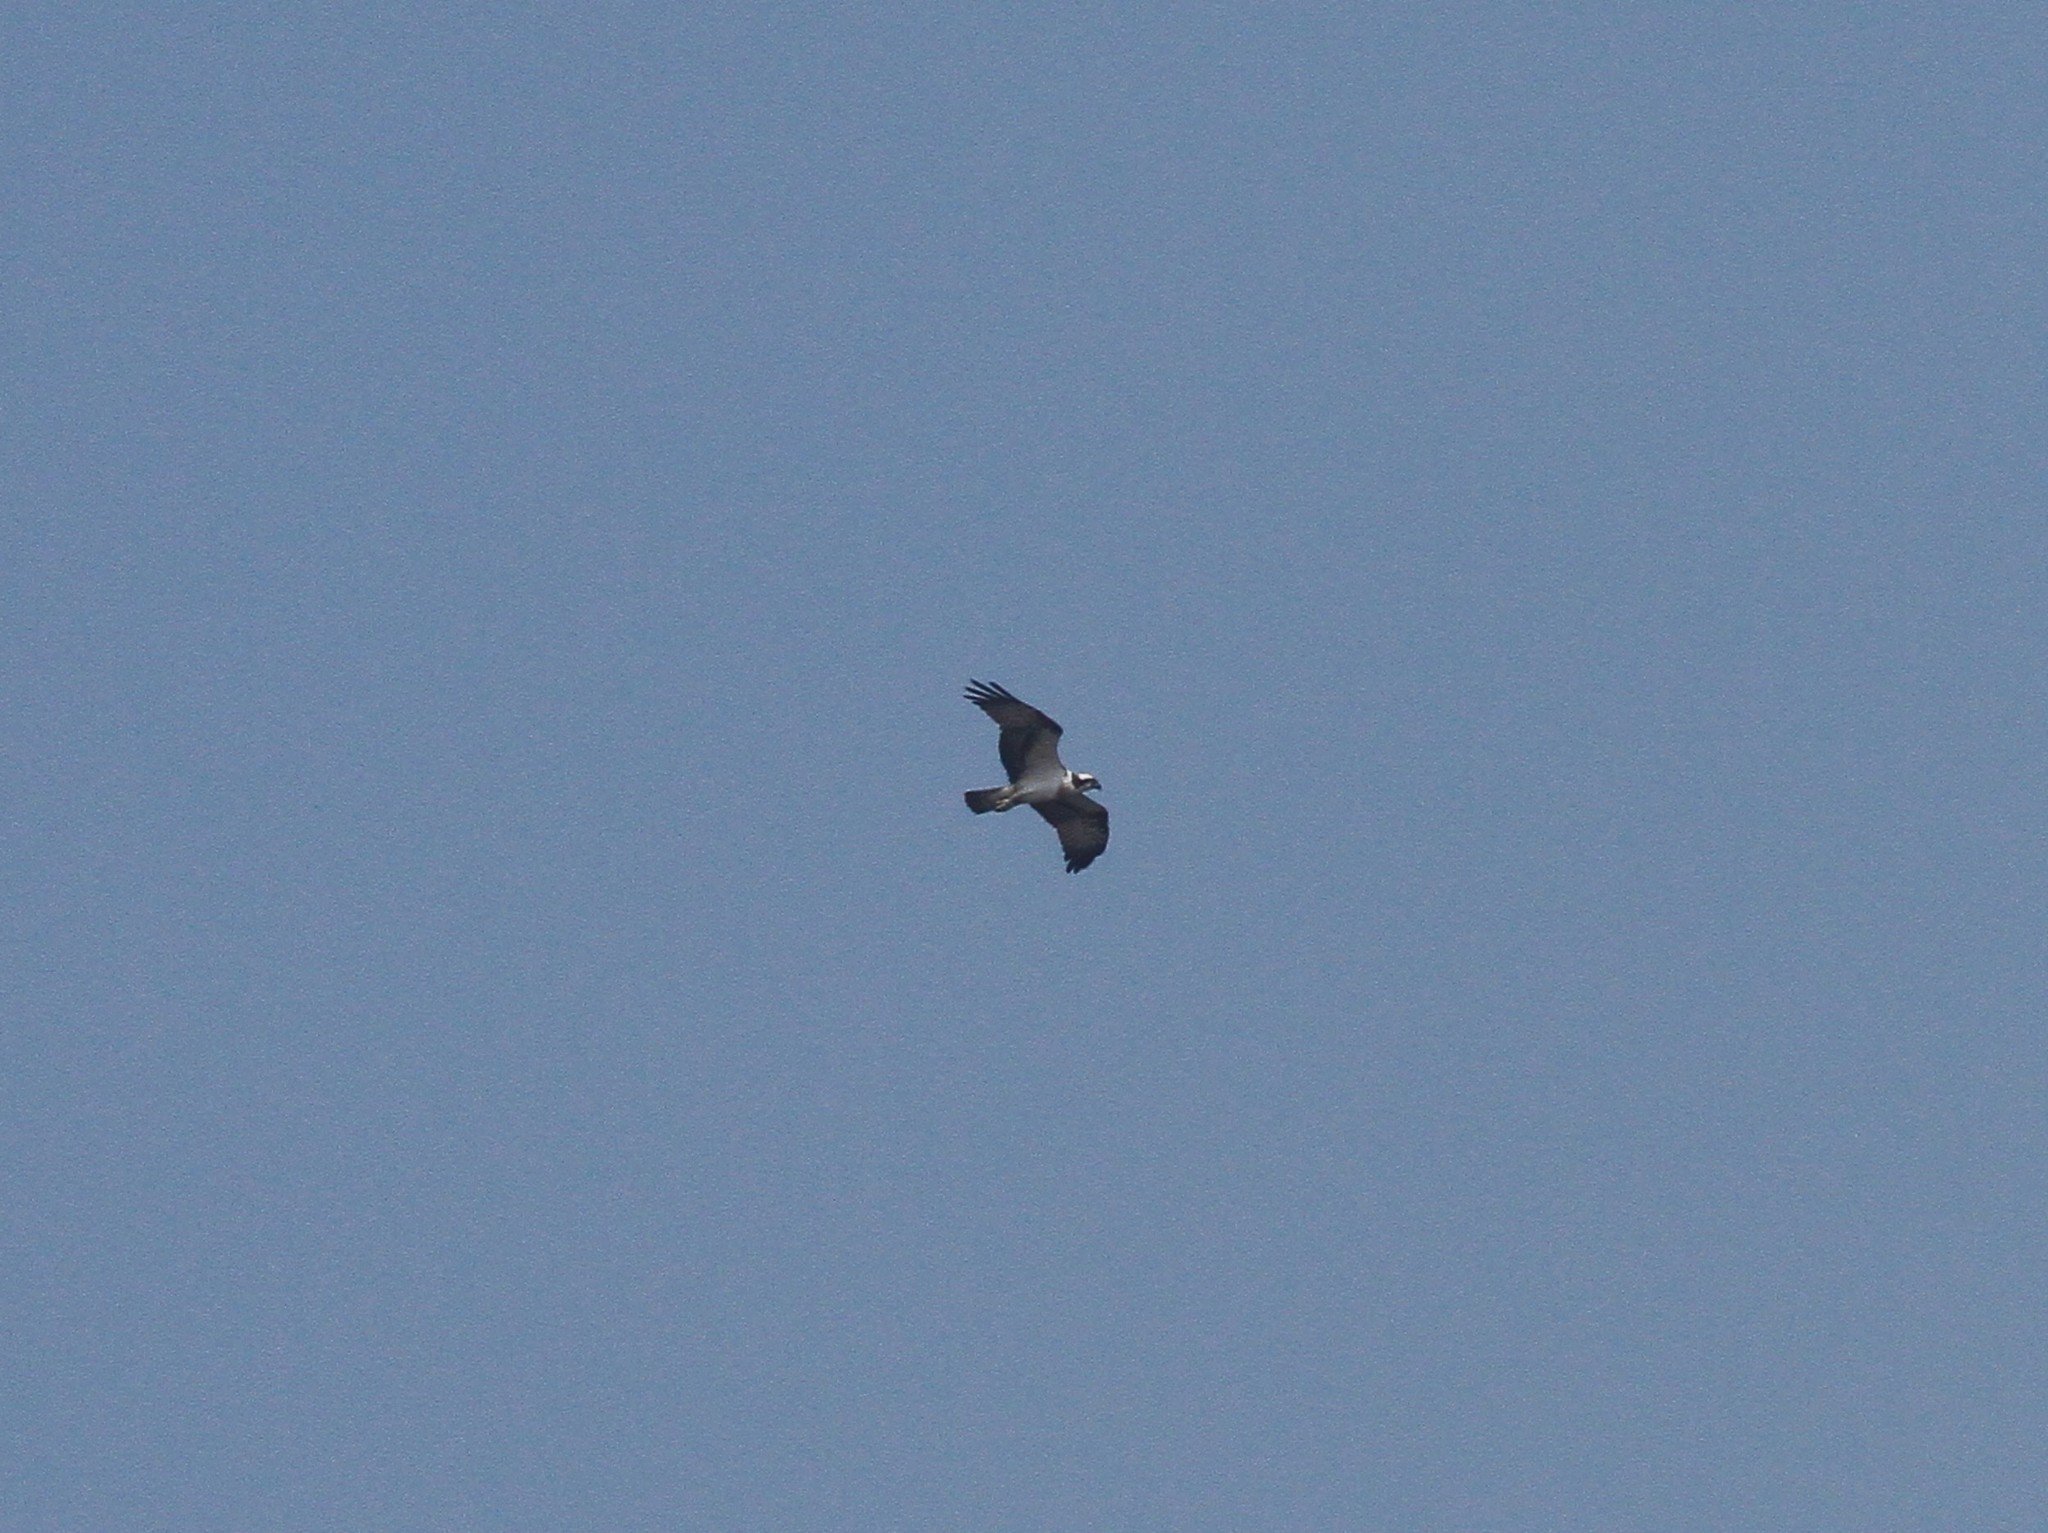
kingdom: Animalia
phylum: Chordata
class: Aves
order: Accipitriformes
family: Pandionidae
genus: Pandion
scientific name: Pandion haliaetus
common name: Osprey
